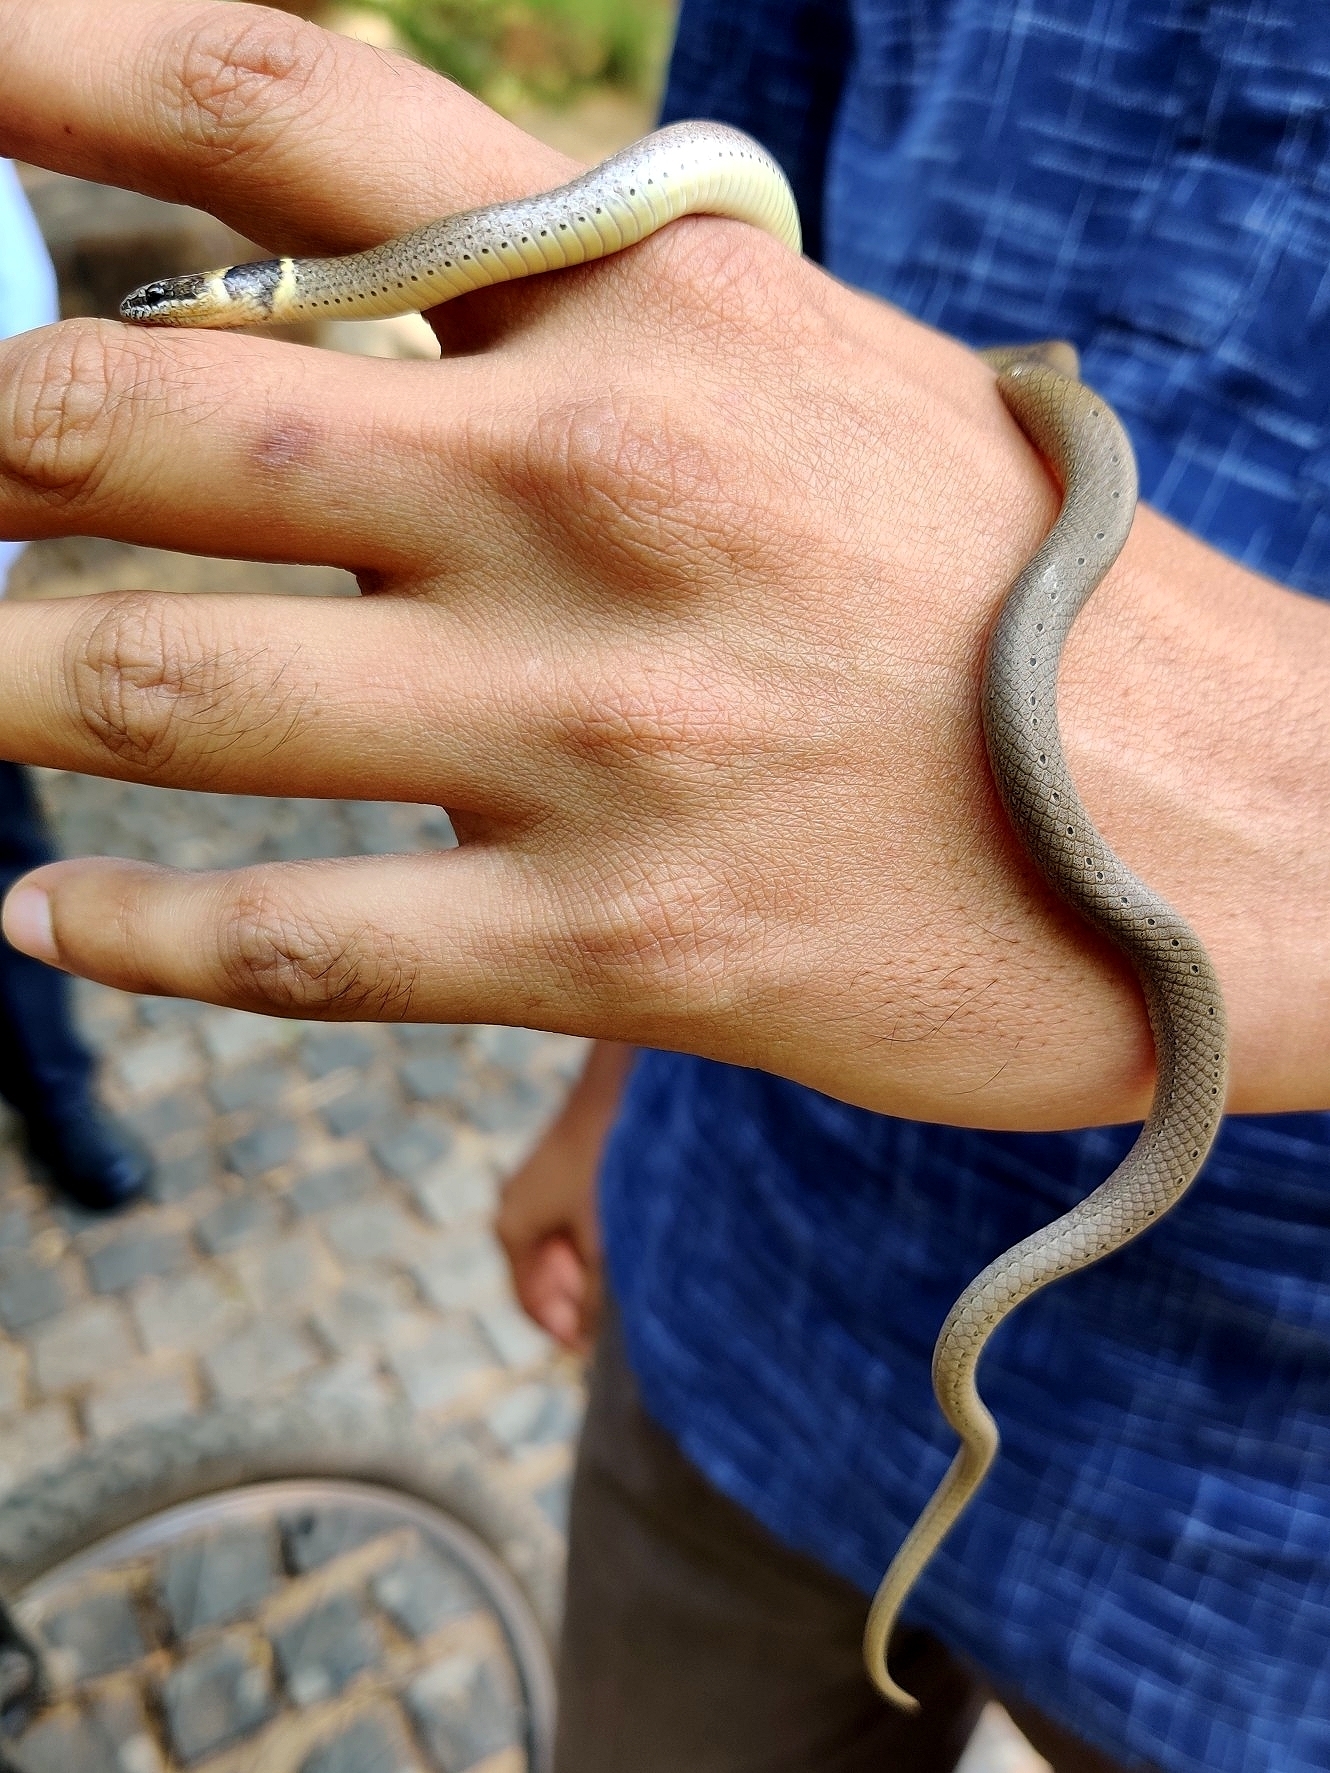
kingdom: Animalia
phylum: Chordata
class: Squamata
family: Colubridae
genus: Sibynophis
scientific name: Sibynophis subpunctatus
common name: Black-headed snake
